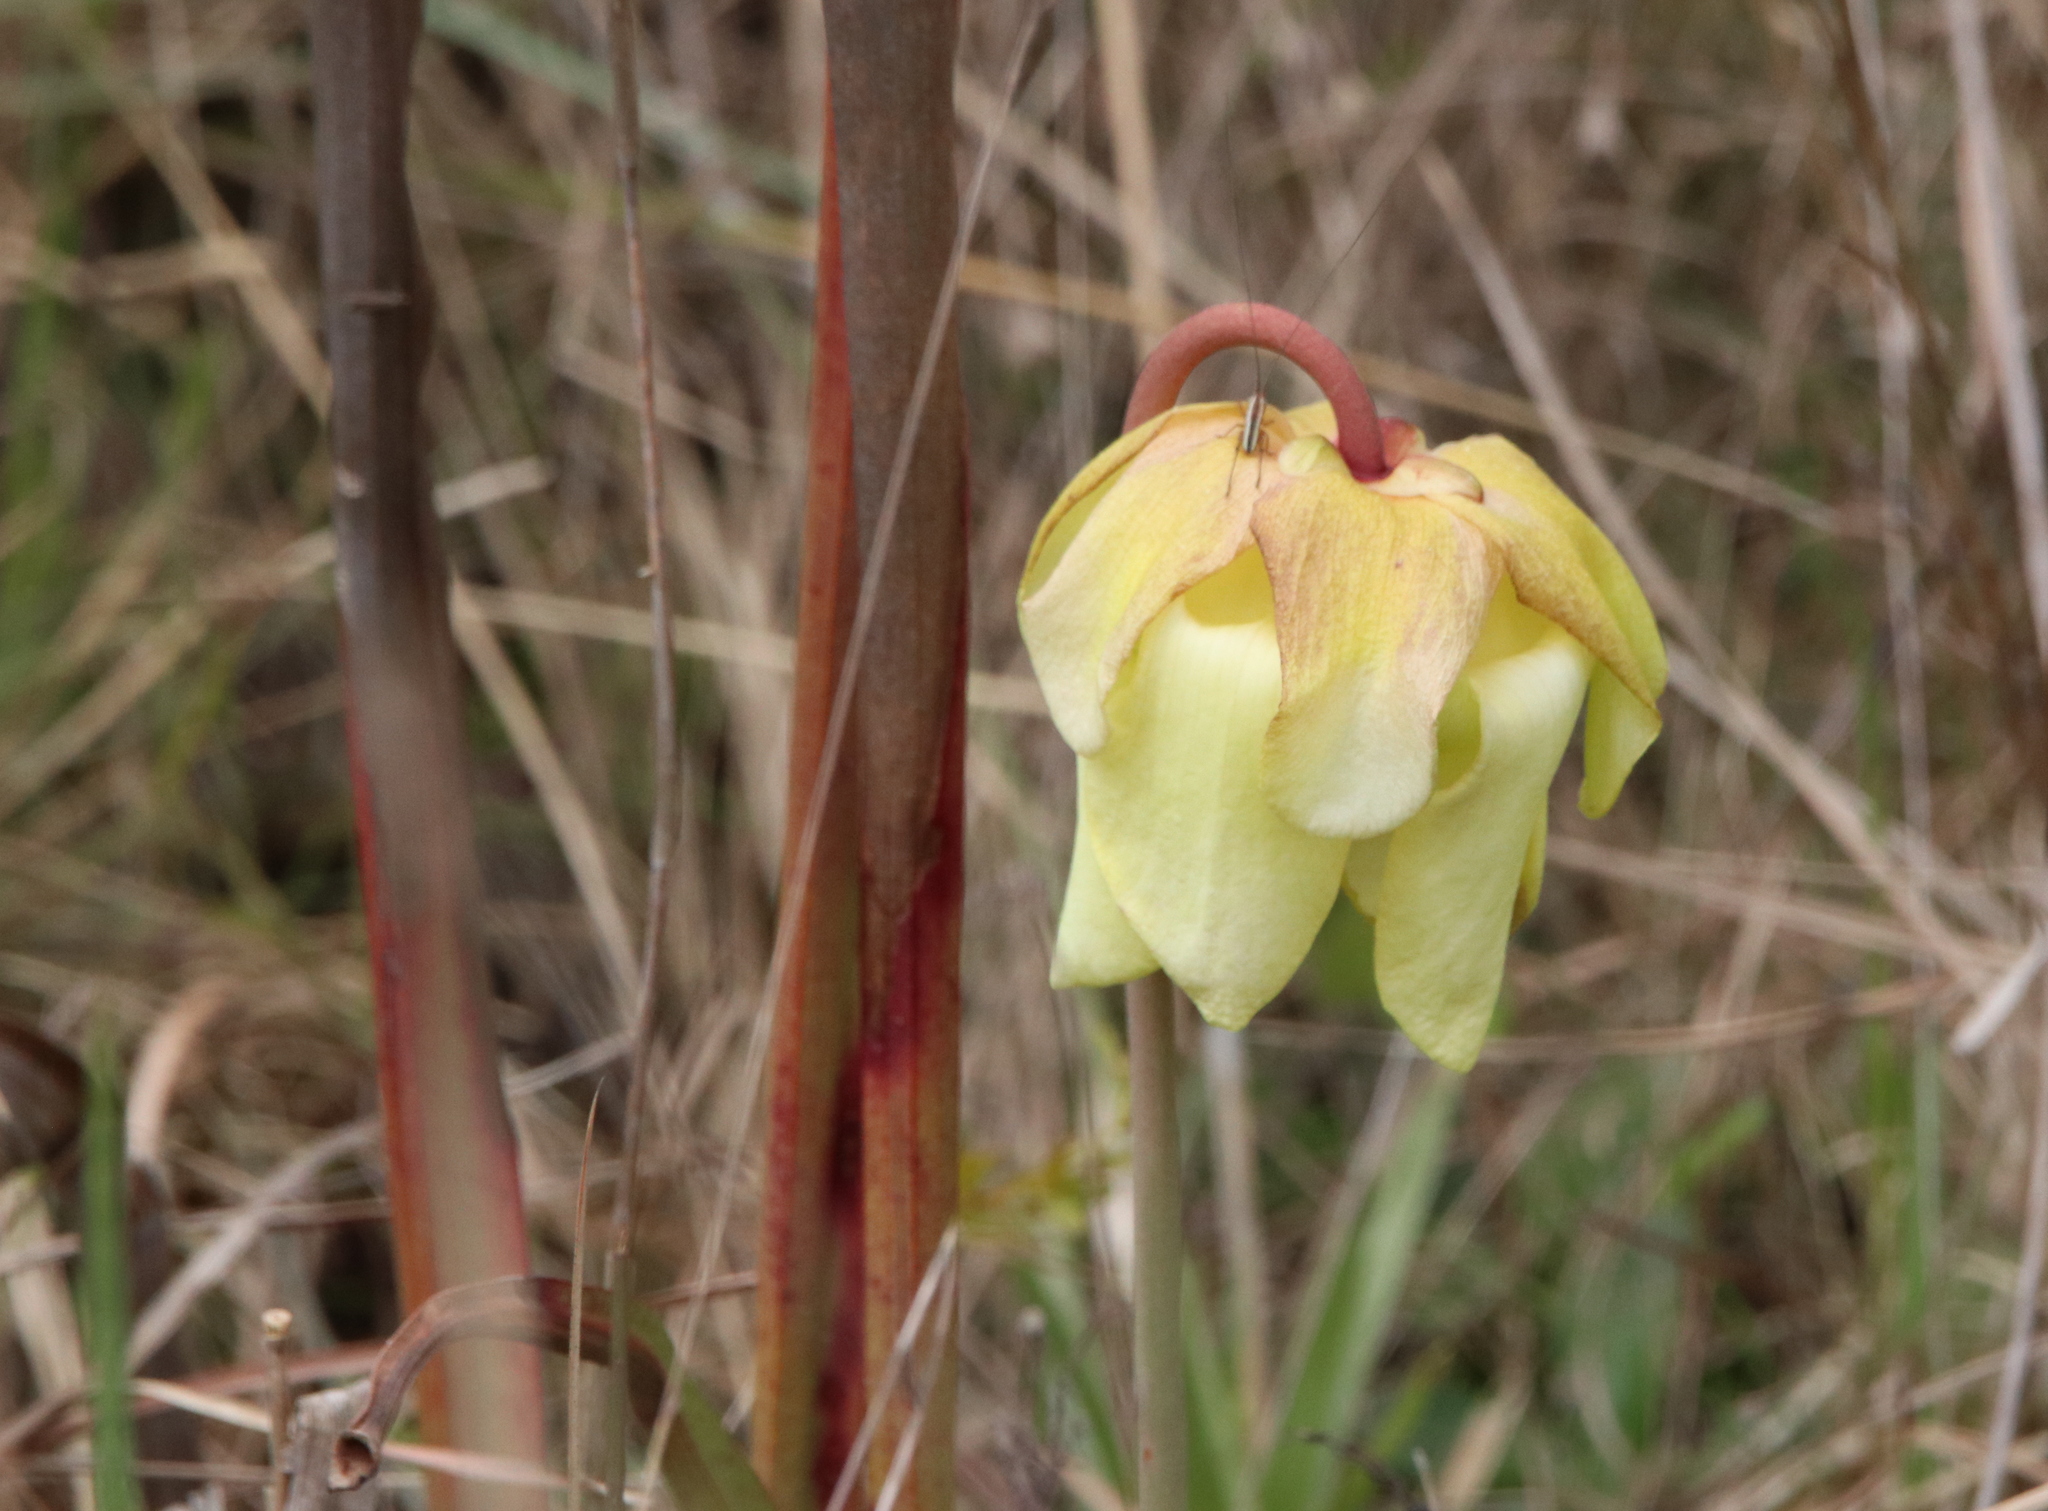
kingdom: Plantae
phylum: Tracheophyta
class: Magnoliopsida
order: Ericales
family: Sarraceniaceae
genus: Sarracenia
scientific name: Sarracenia alata
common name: Yellow trumpets
